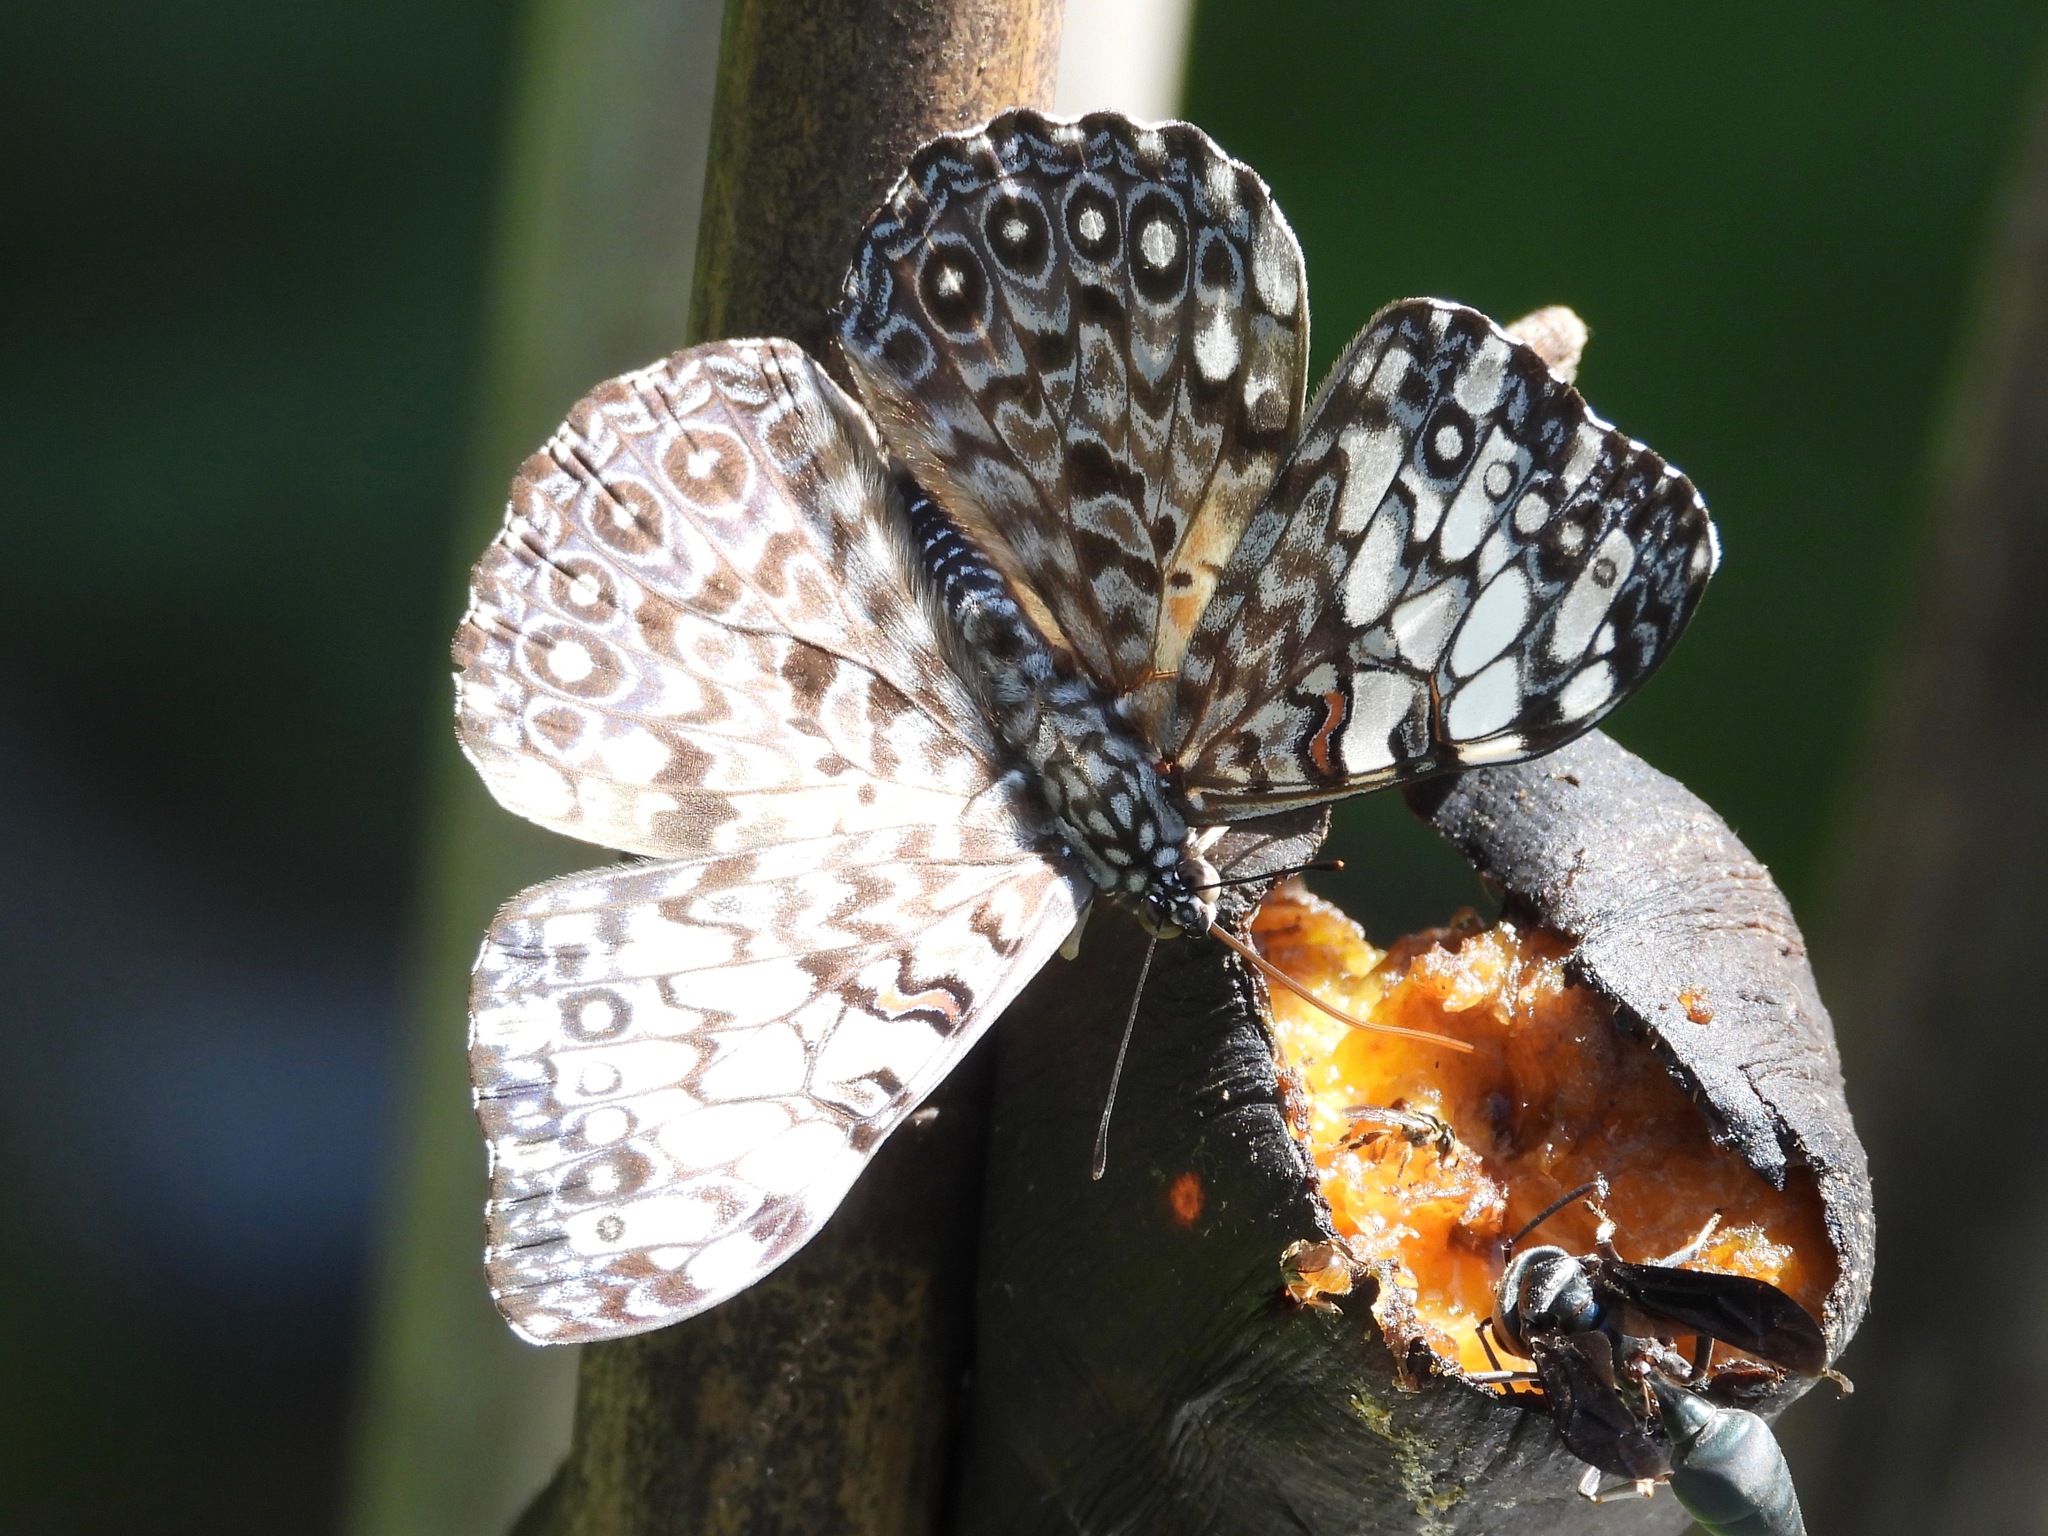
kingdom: Animalia
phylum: Arthropoda
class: Insecta
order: Lepidoptera
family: Nymphalidae
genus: Hamadryas
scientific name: Hamadryas feronia
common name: Variable cracker
